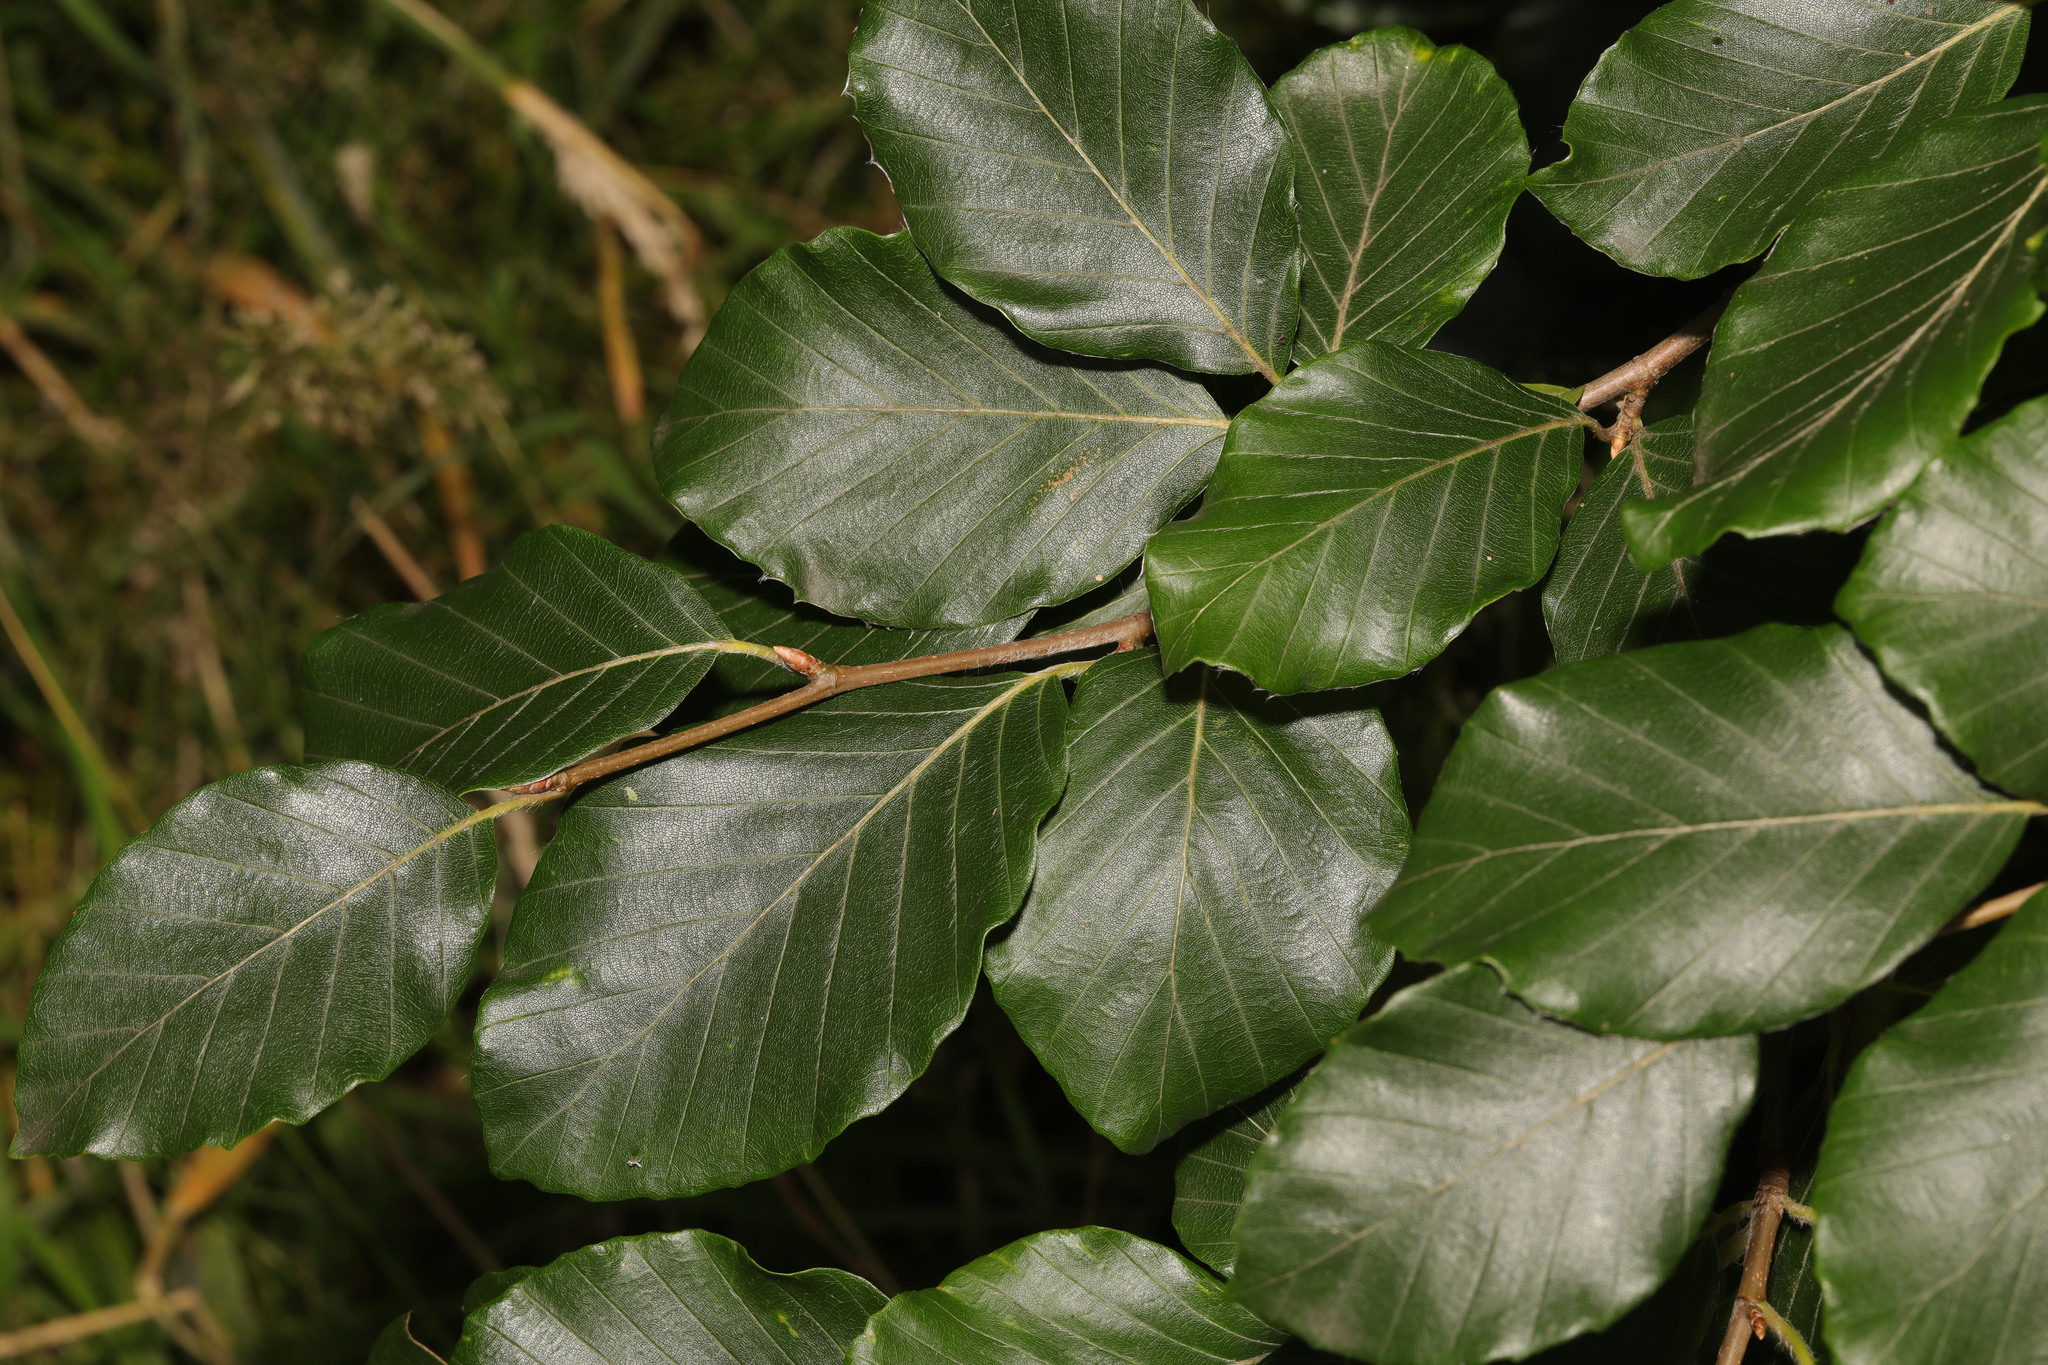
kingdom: Plantae
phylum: Tracheophyta
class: Magnoliopsida
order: Fagales
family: Fagaceae
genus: Fagus
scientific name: Fagus sylvatica
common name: Beech
